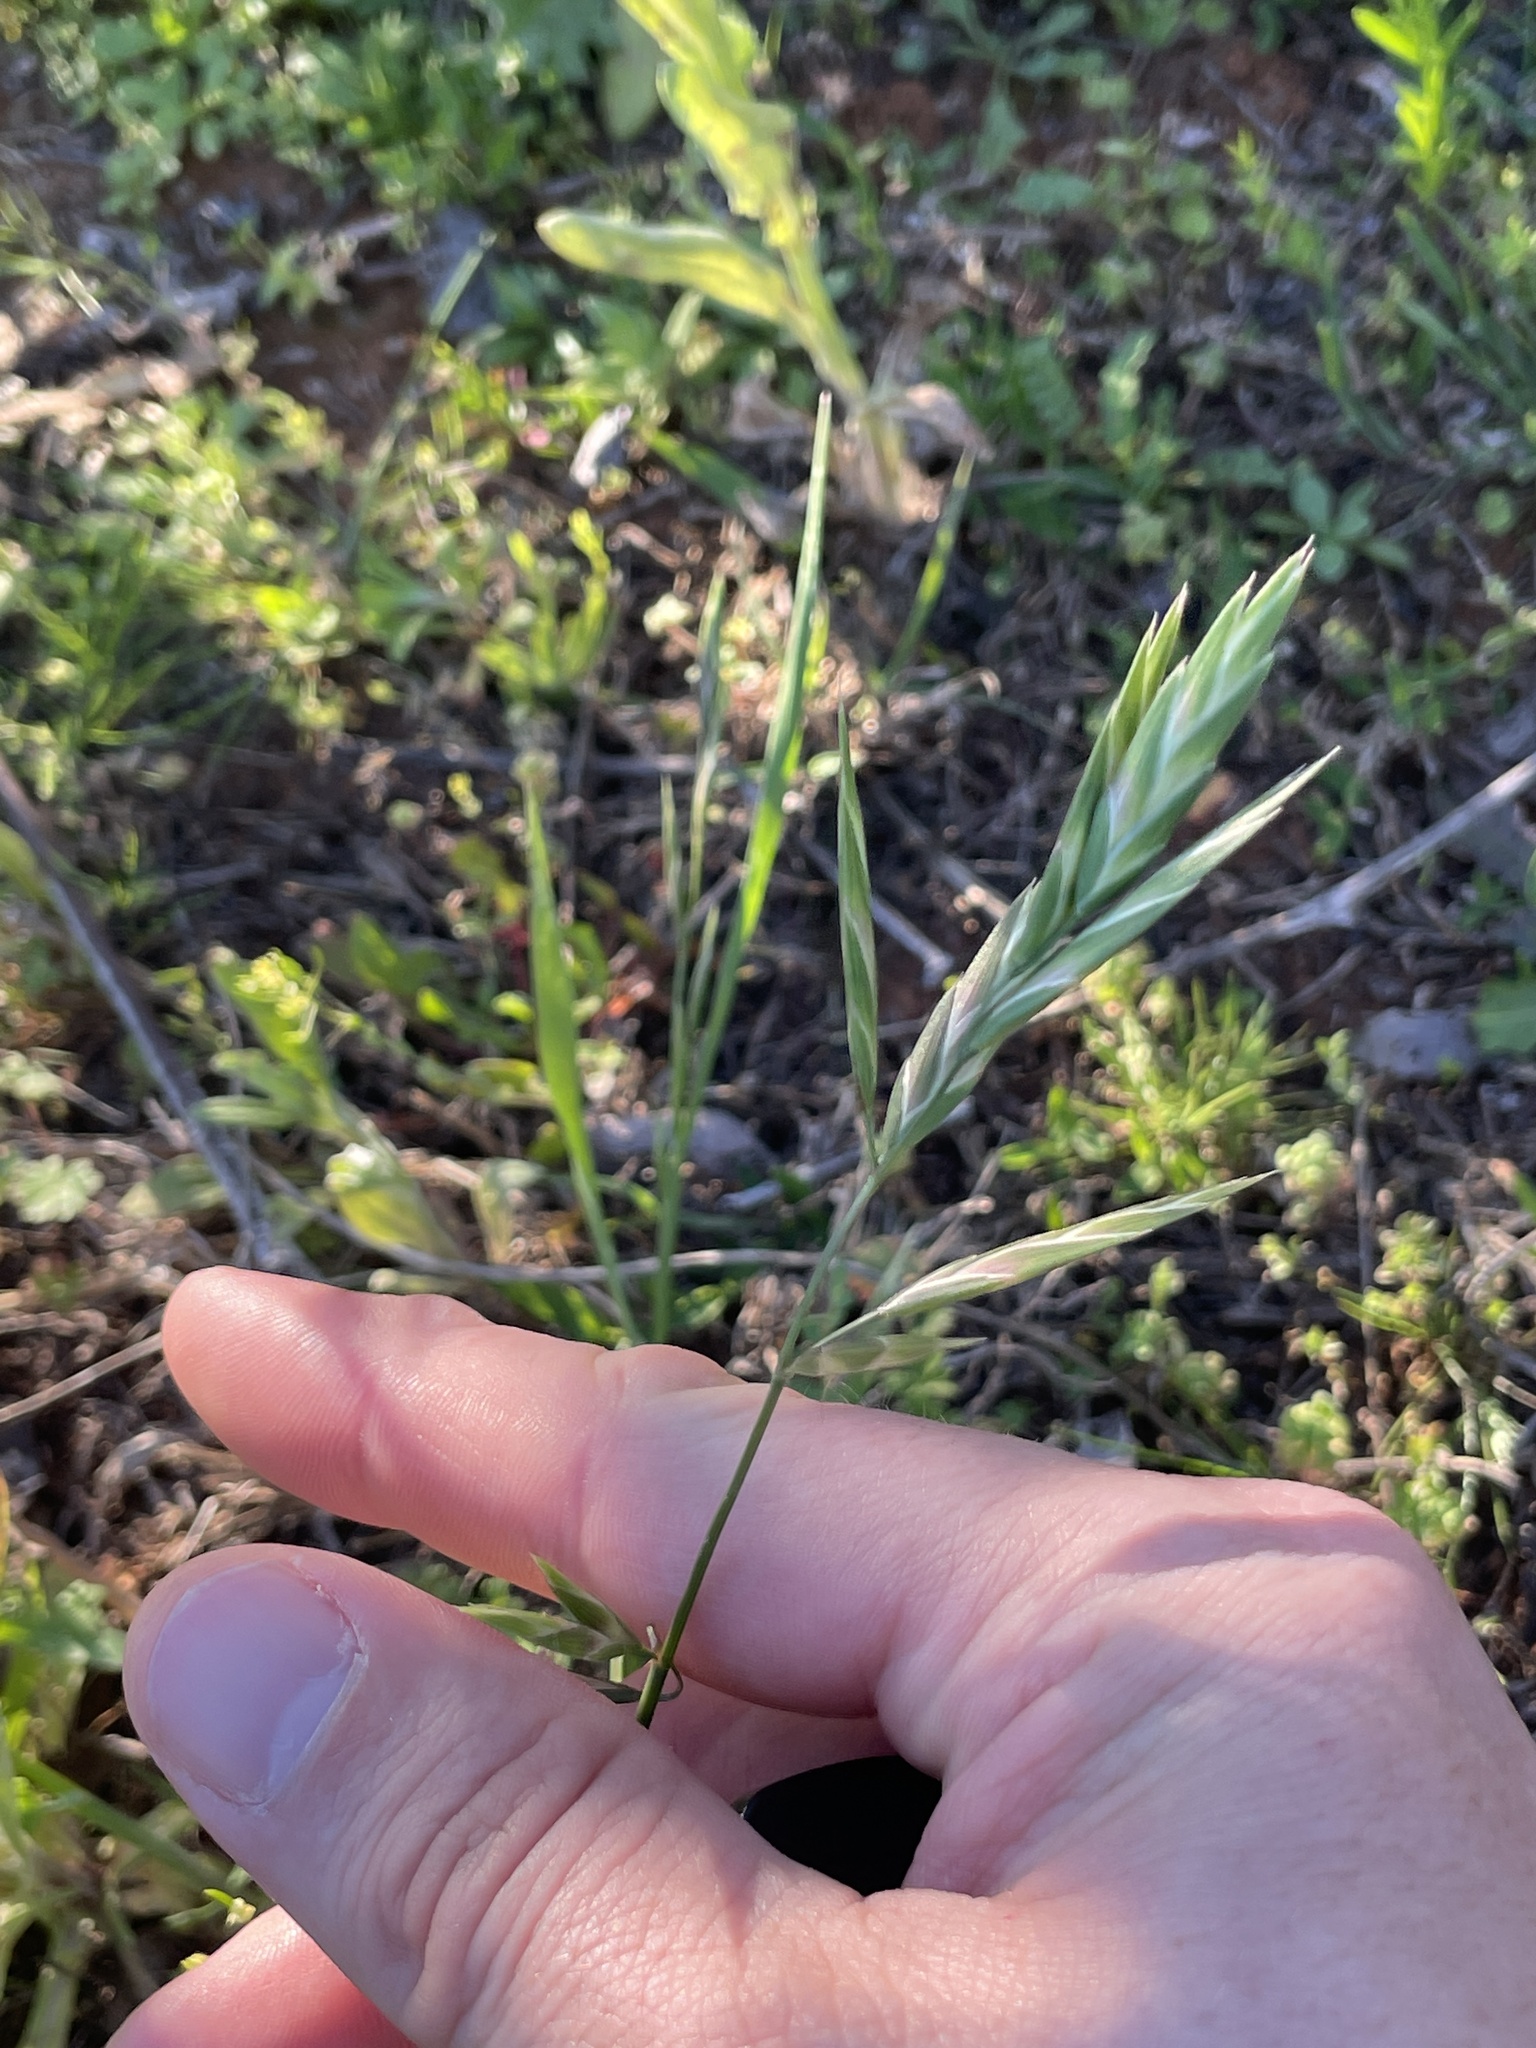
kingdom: Plantae
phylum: Tracheophyta
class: Liliopsida
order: Poales
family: Poaceae
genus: Bromus
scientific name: Bromus catharticus
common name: Rescuegrass
